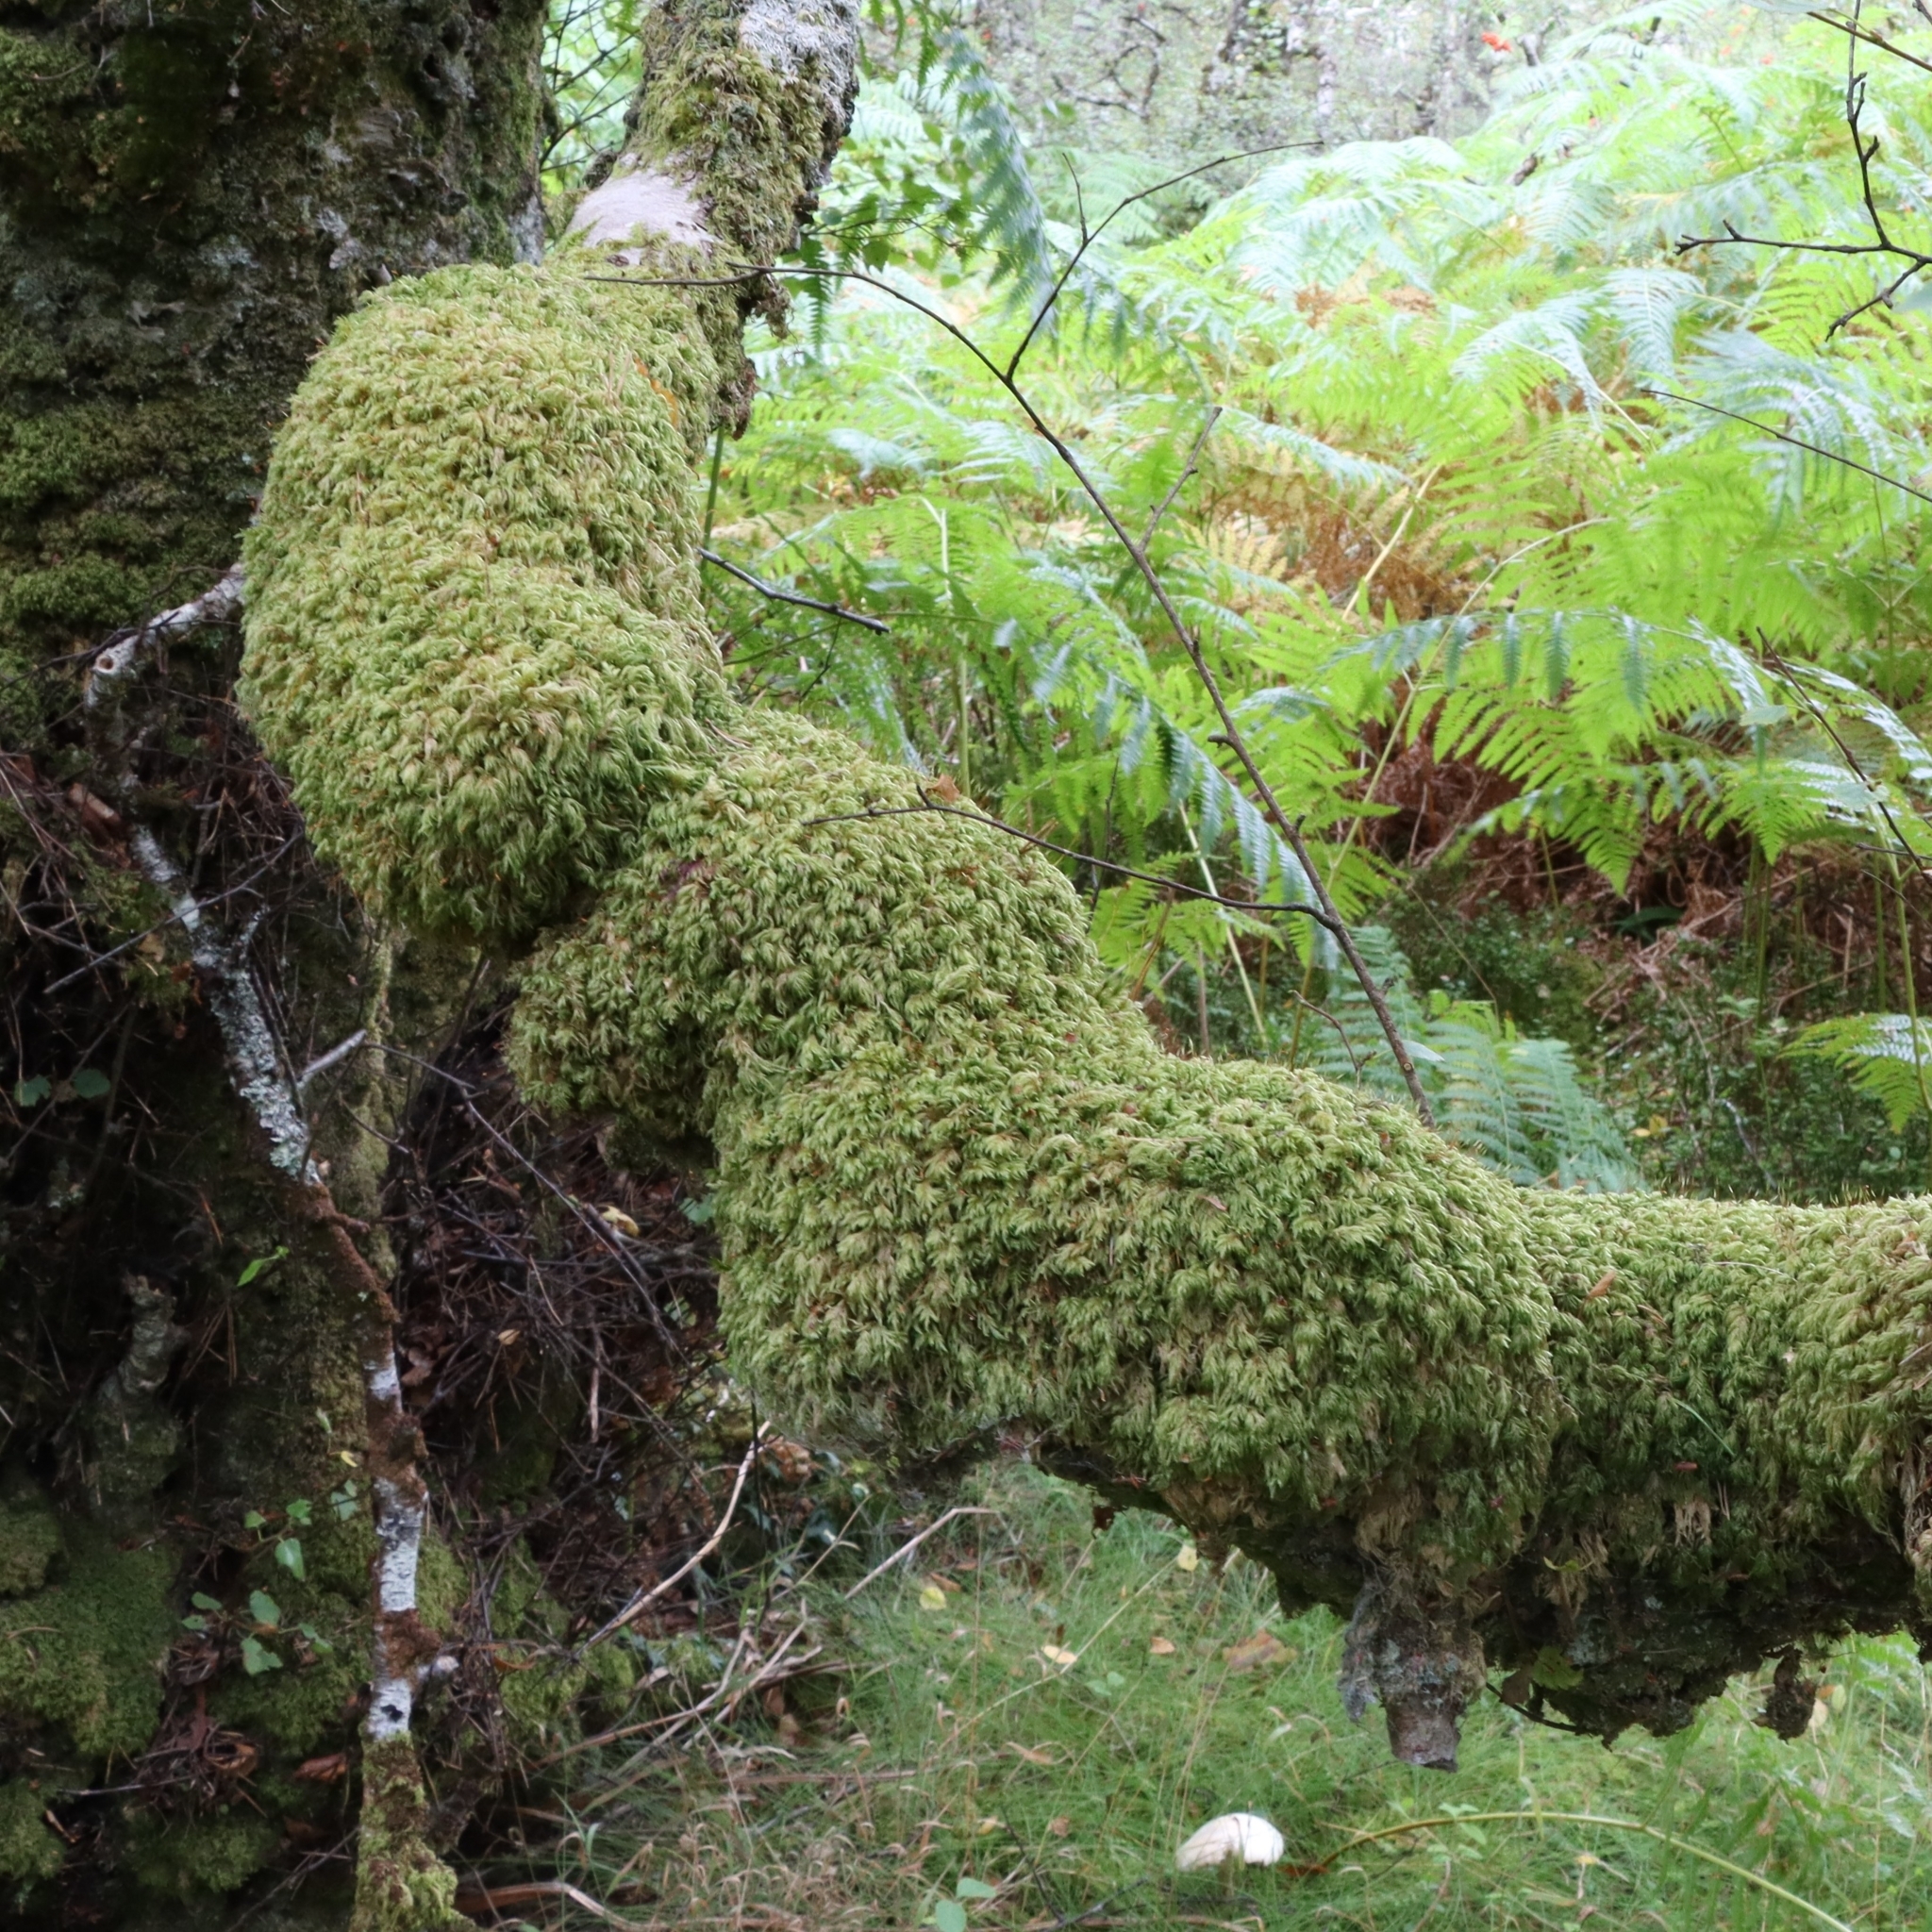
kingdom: Plantae
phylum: Bryophyta
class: Bryopsida
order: Hypnales
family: Lembophyllaceae
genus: Pseudisothecium
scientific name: Pseudisothecium myosuroides
